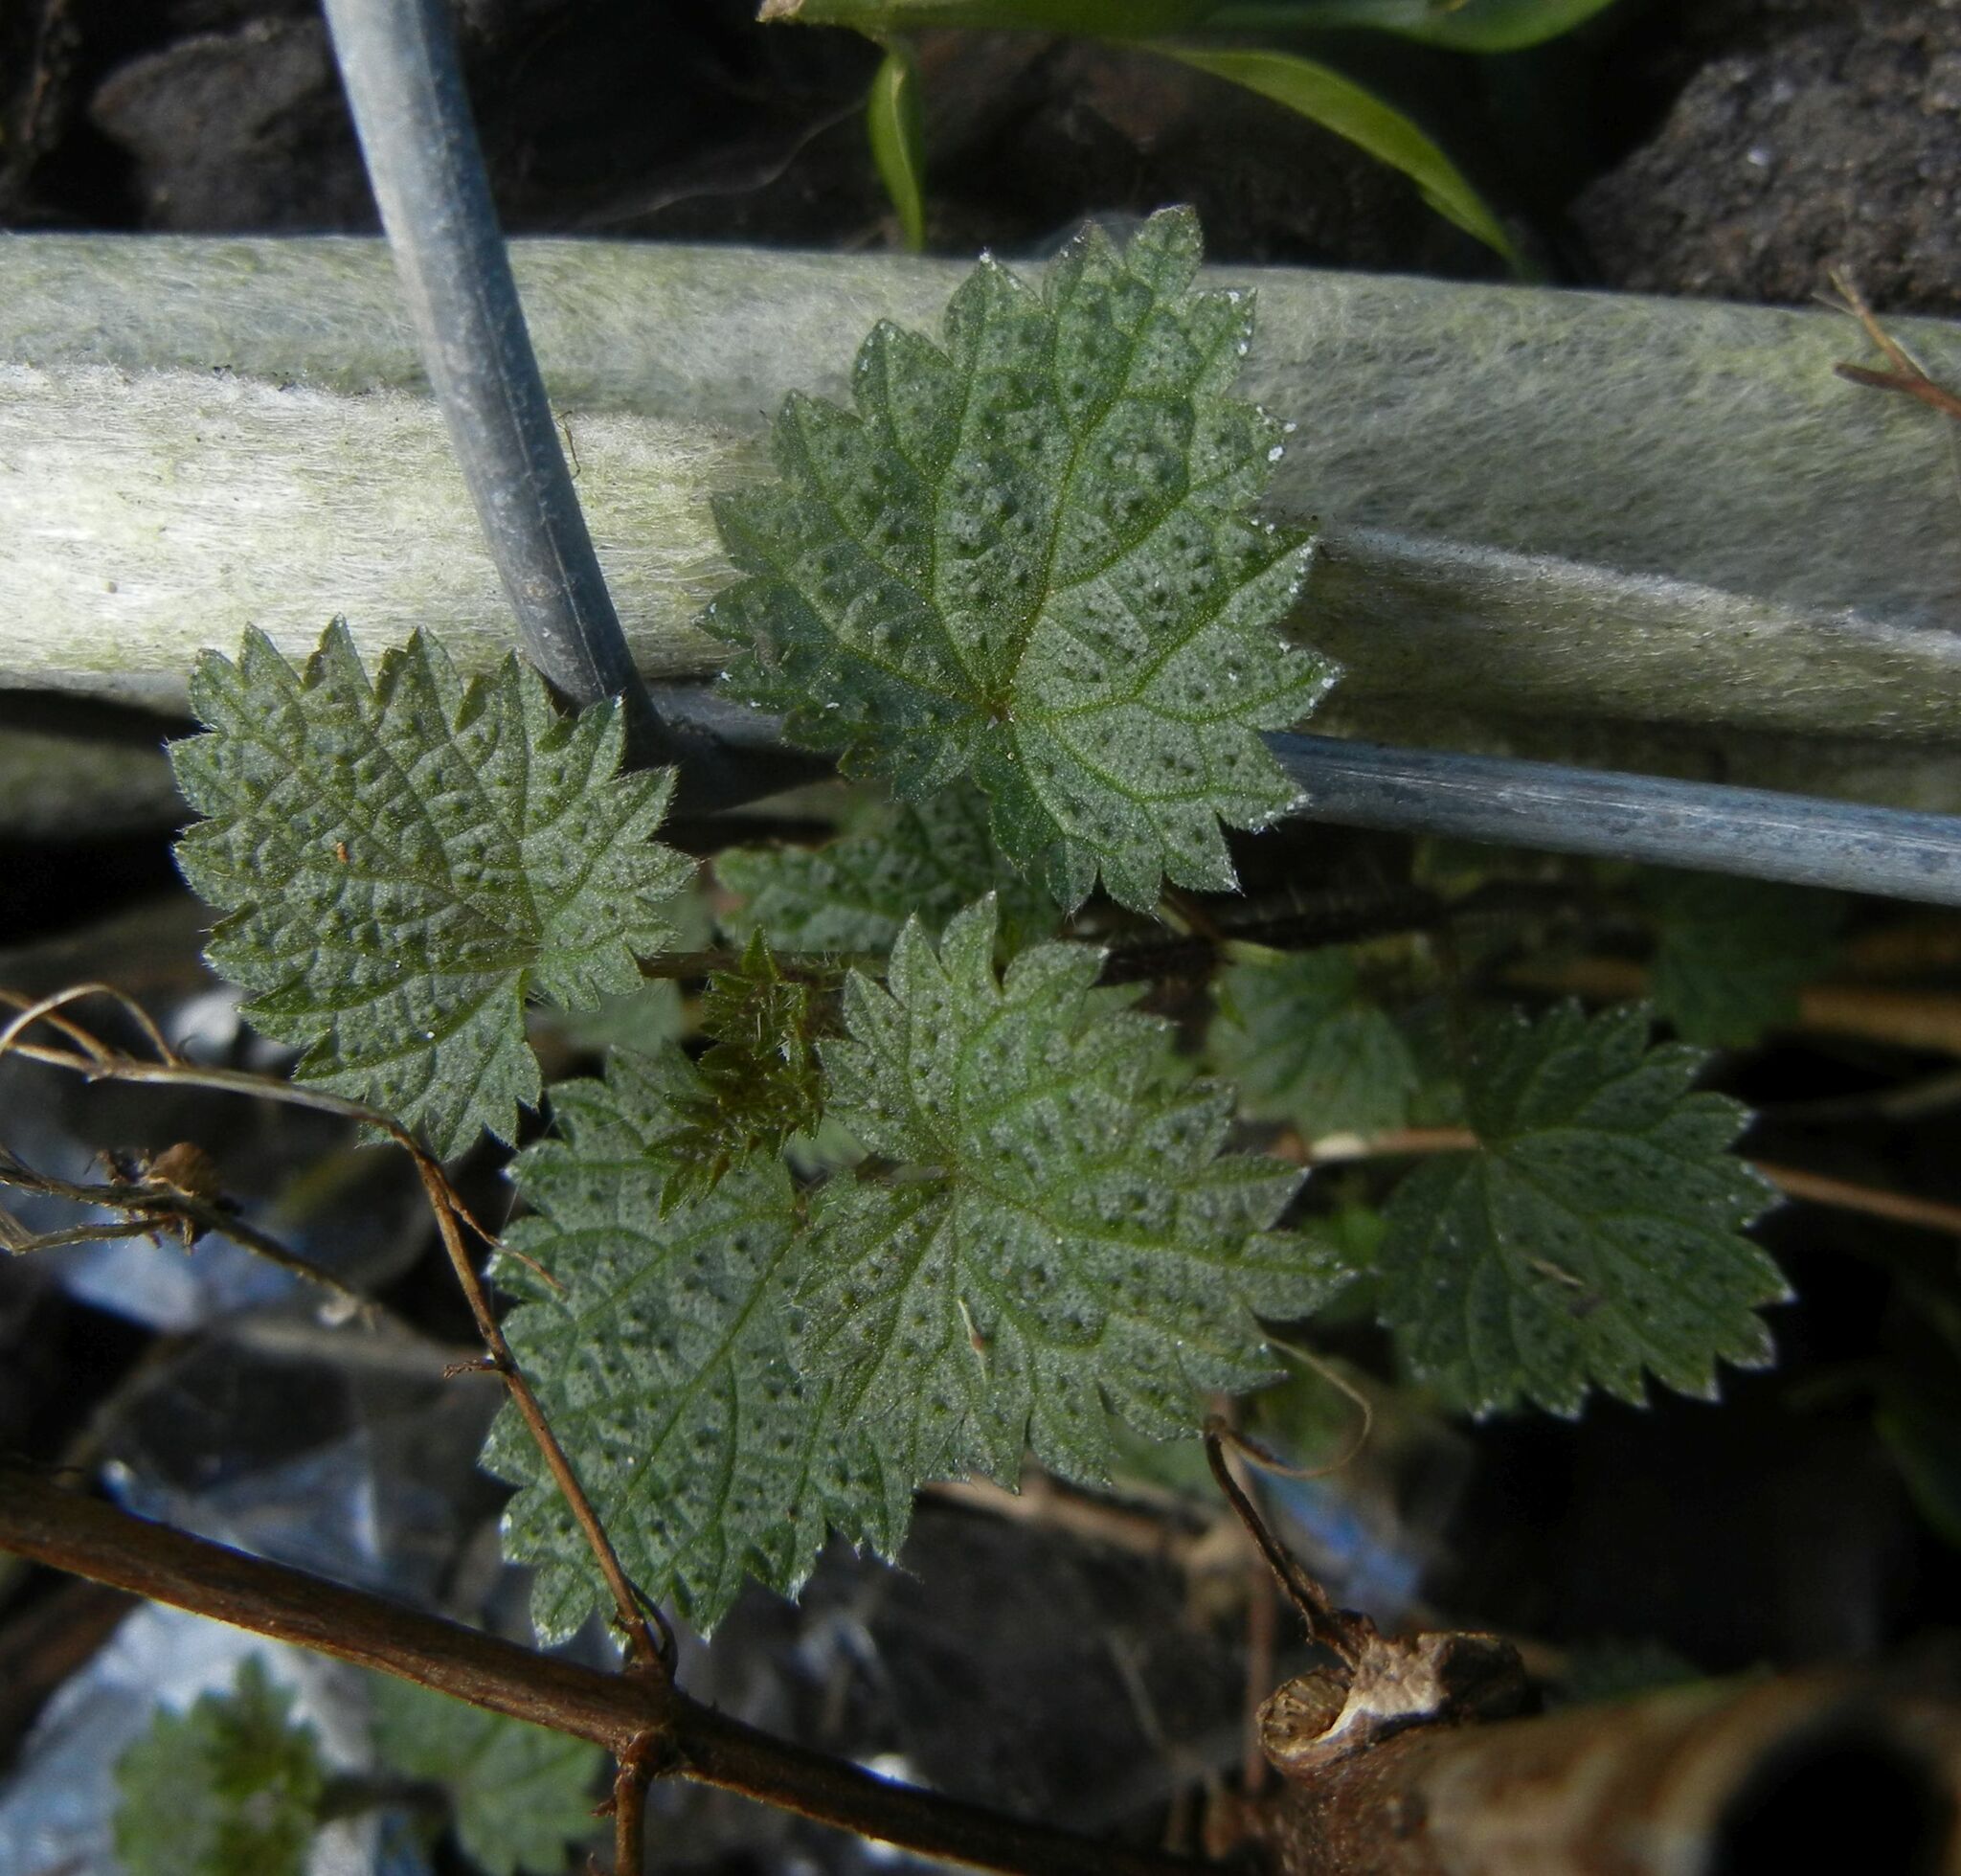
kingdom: Plantae
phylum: Tracheophyta
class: Magnoliopsida
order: Rosales
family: Urticaceae
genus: Urtica
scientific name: Urtica dioica
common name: Common nettle
